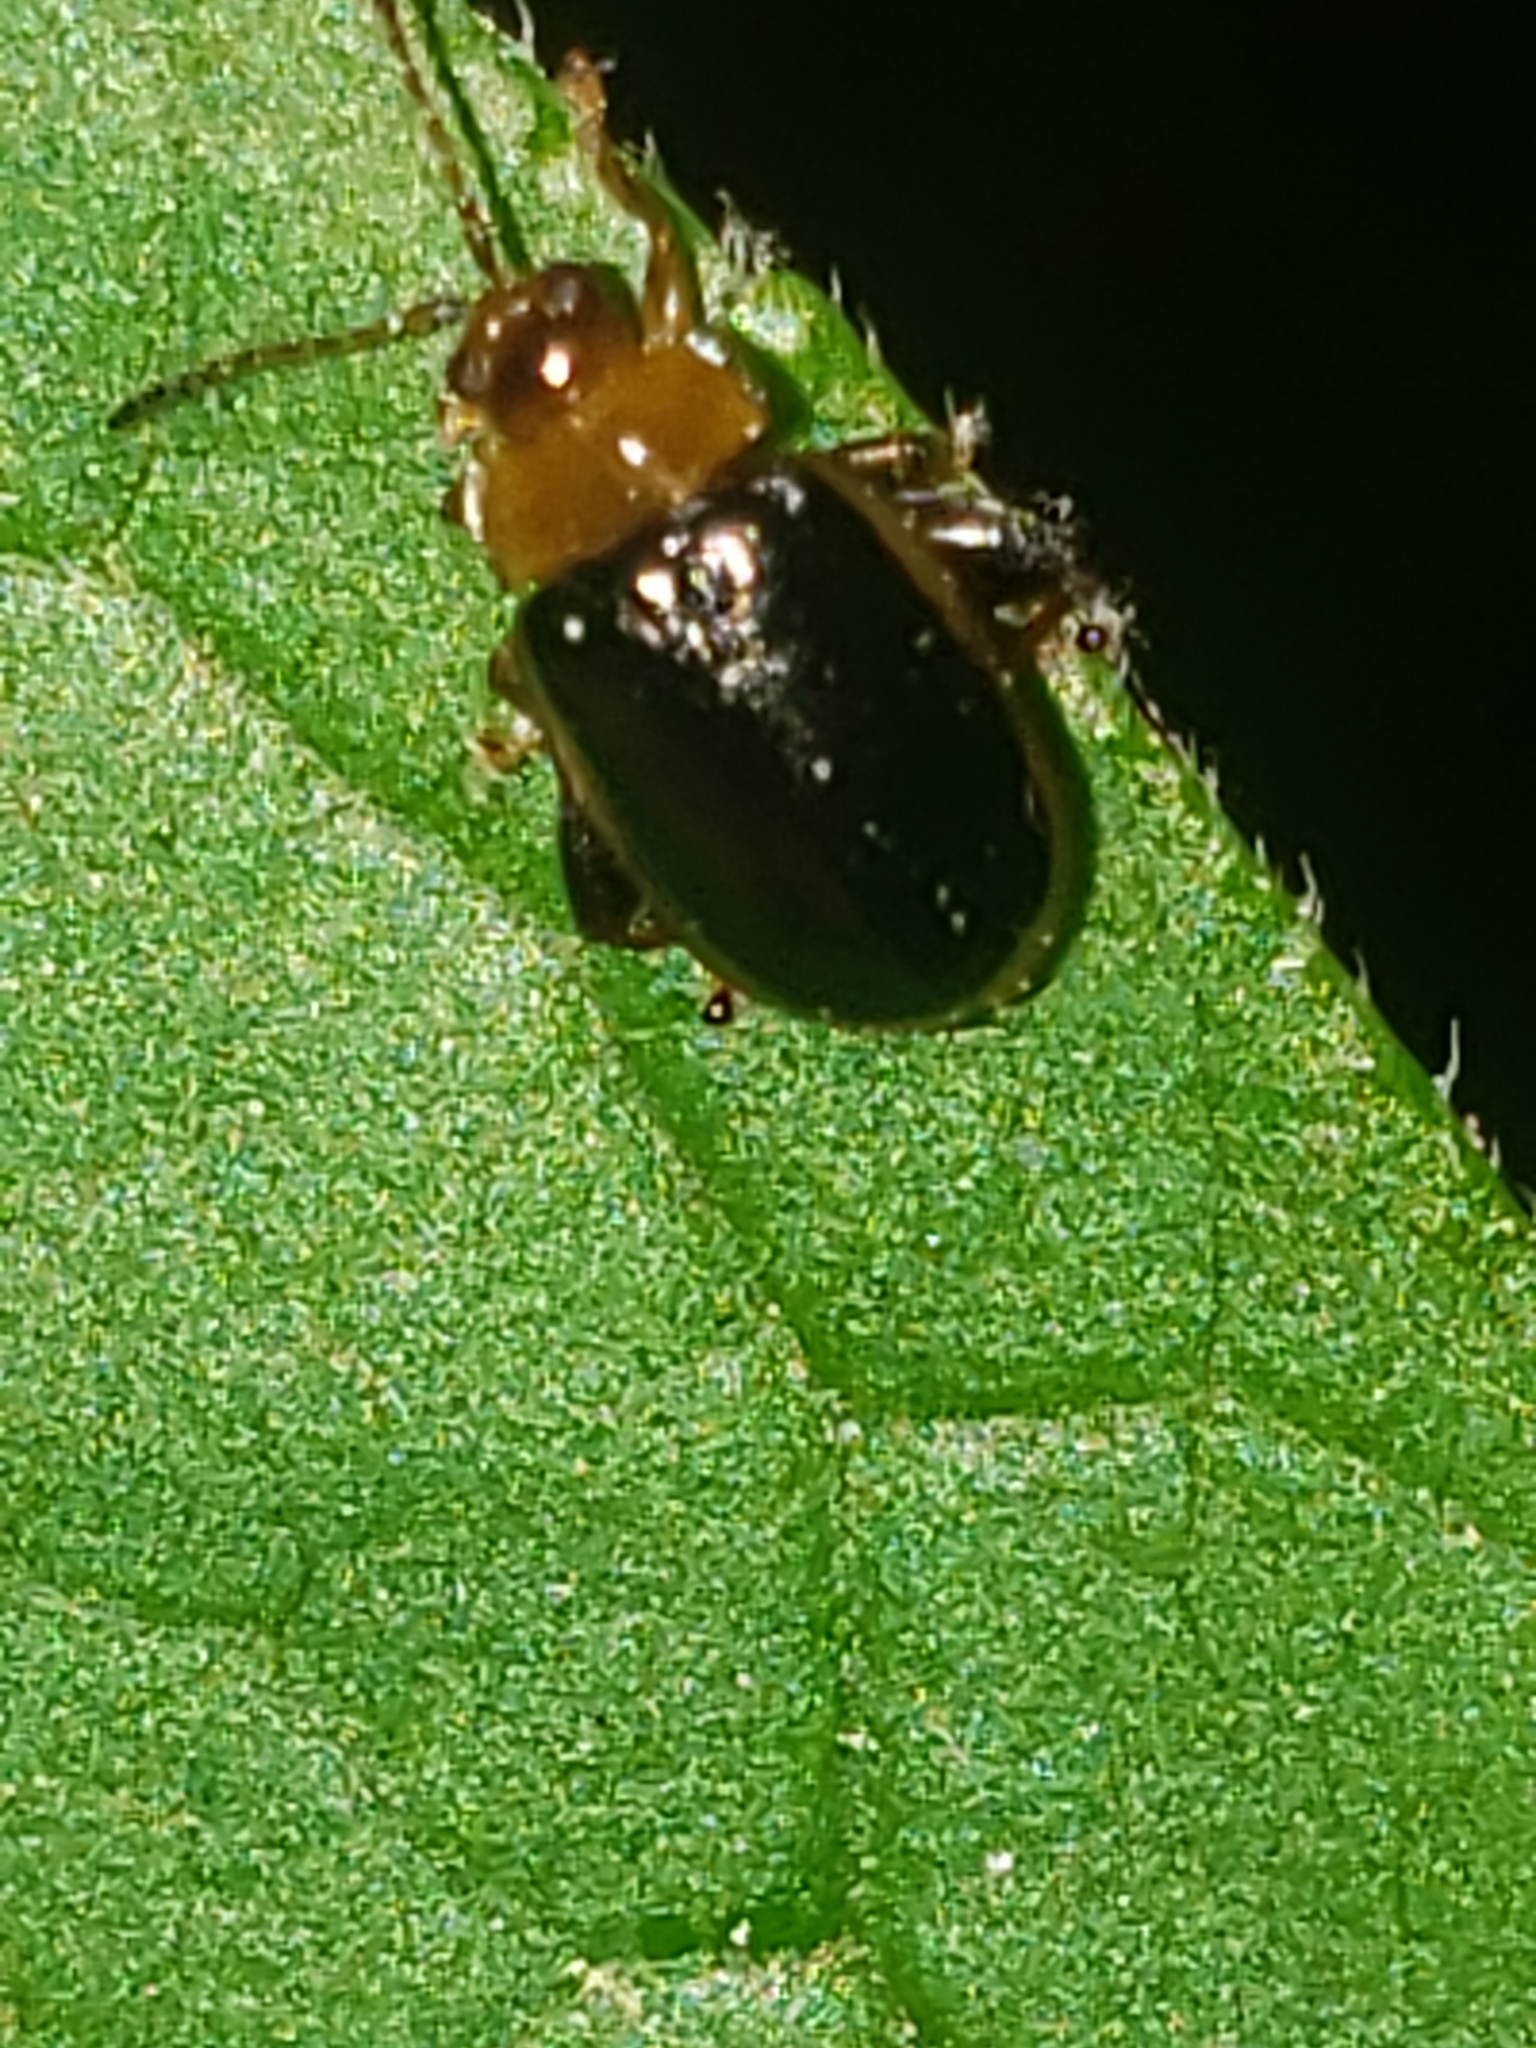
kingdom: Animalia
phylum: Arthropoda
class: Insecta
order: Coleoptera
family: Chrysomelidae
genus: Capraita
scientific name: Capraita circumdata
